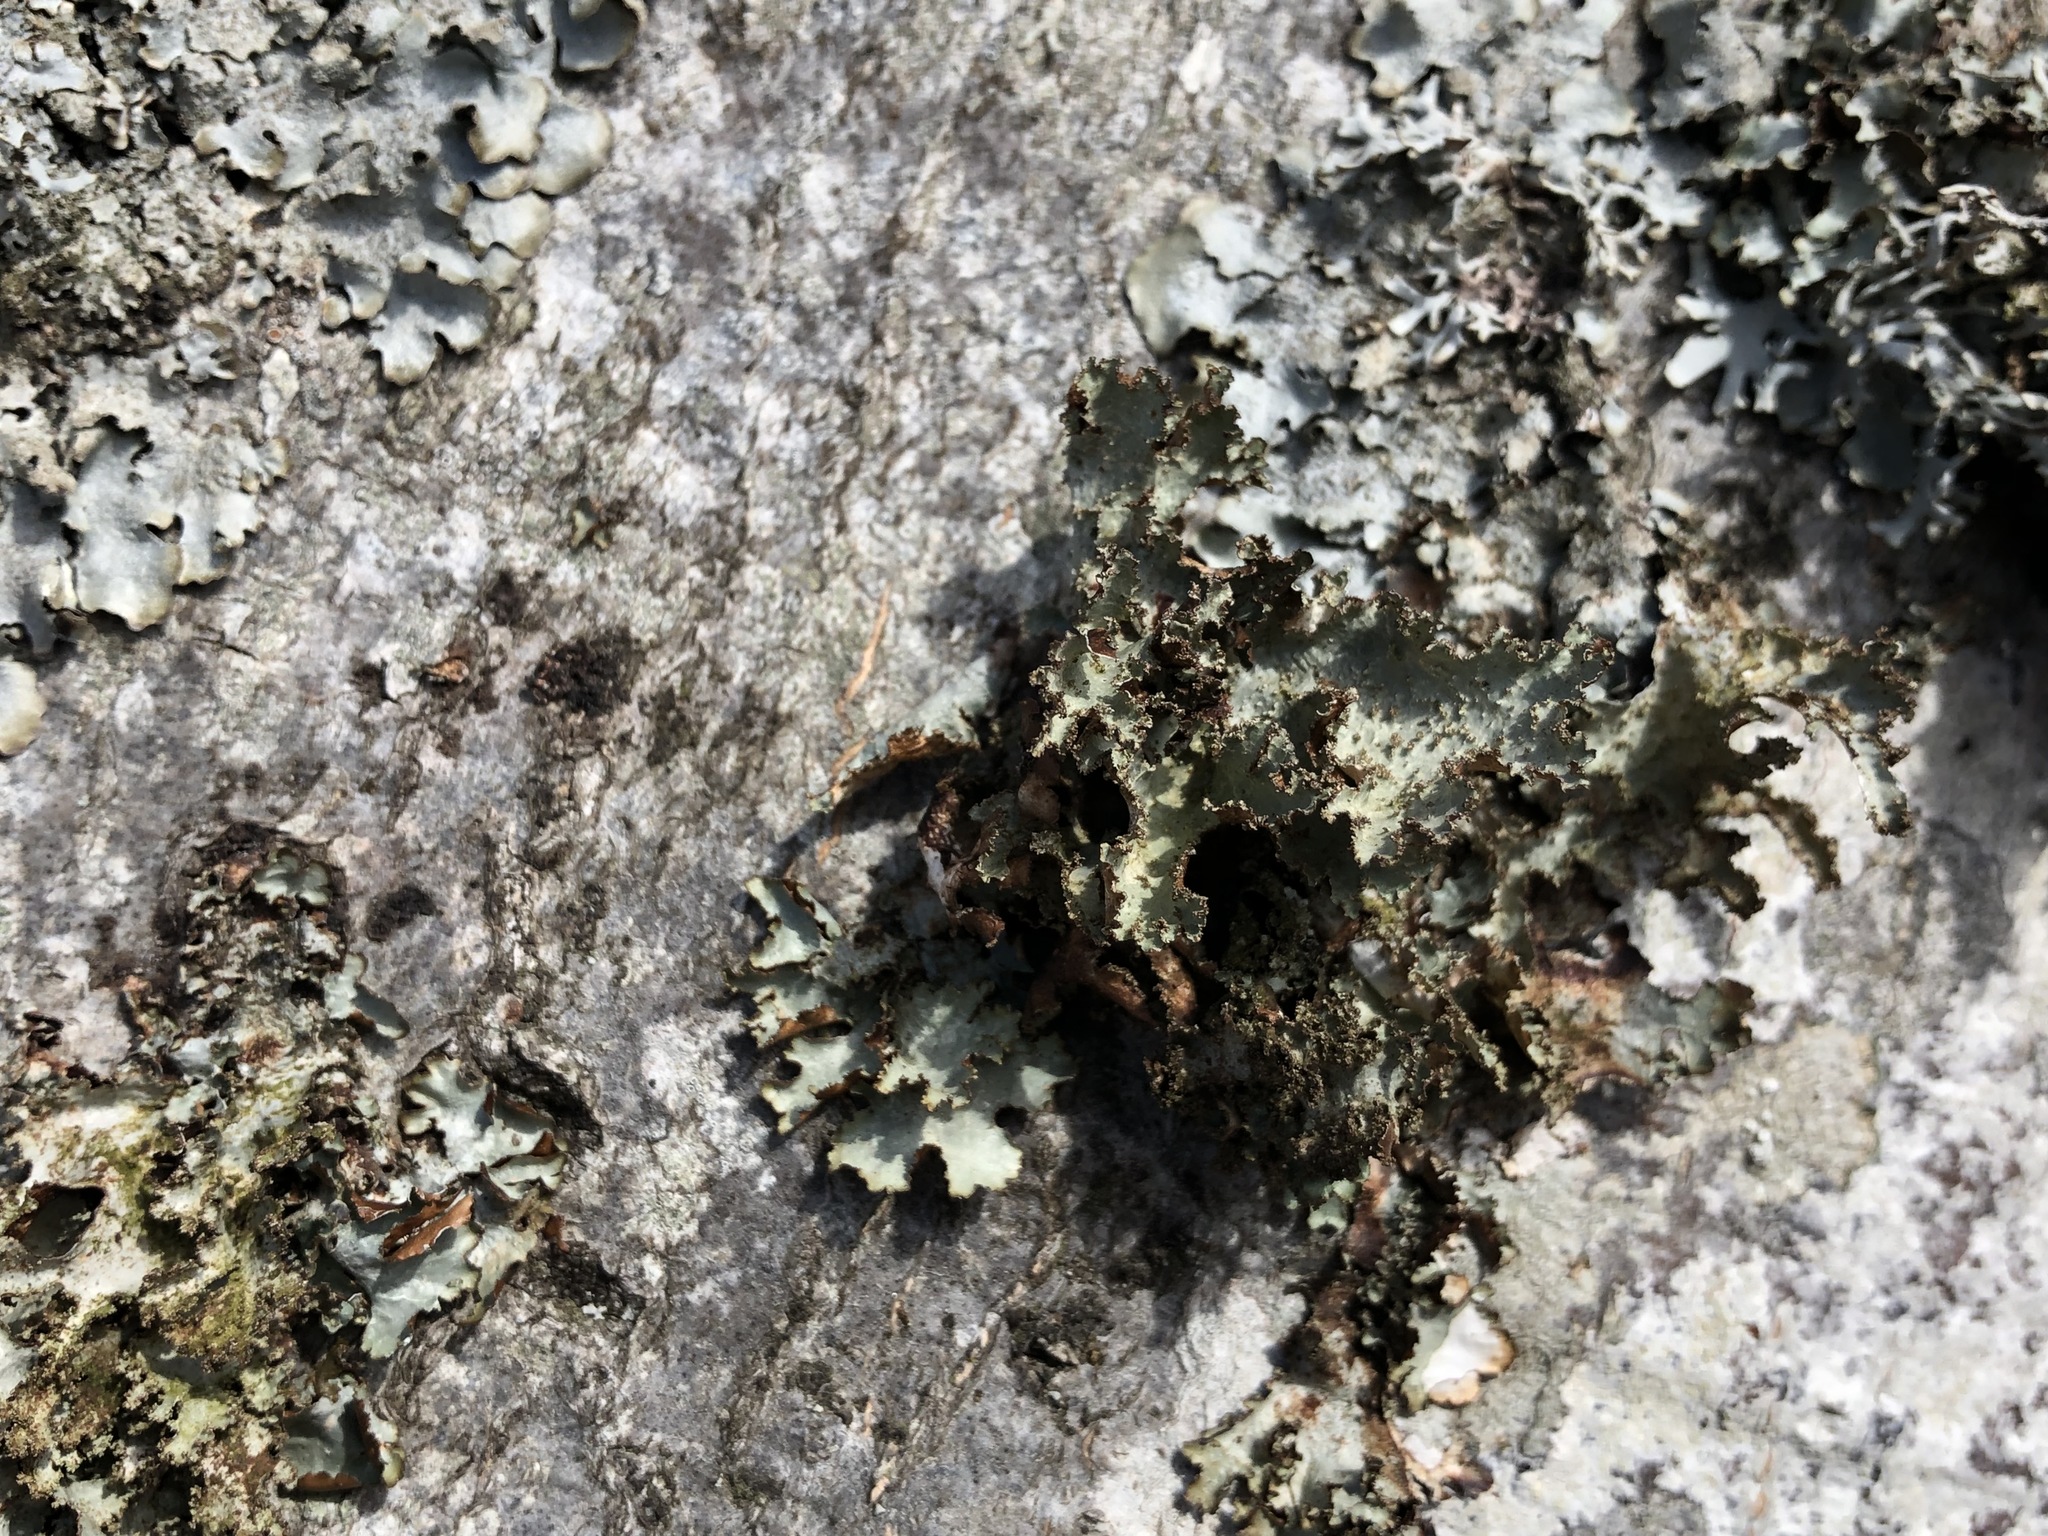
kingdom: Fungi
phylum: Ascomycota
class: Lecanoromycetes
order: Lecanorales
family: Parmeliaceae
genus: Platismatia
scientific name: Platismatia glauca
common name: Varied rag lichen
